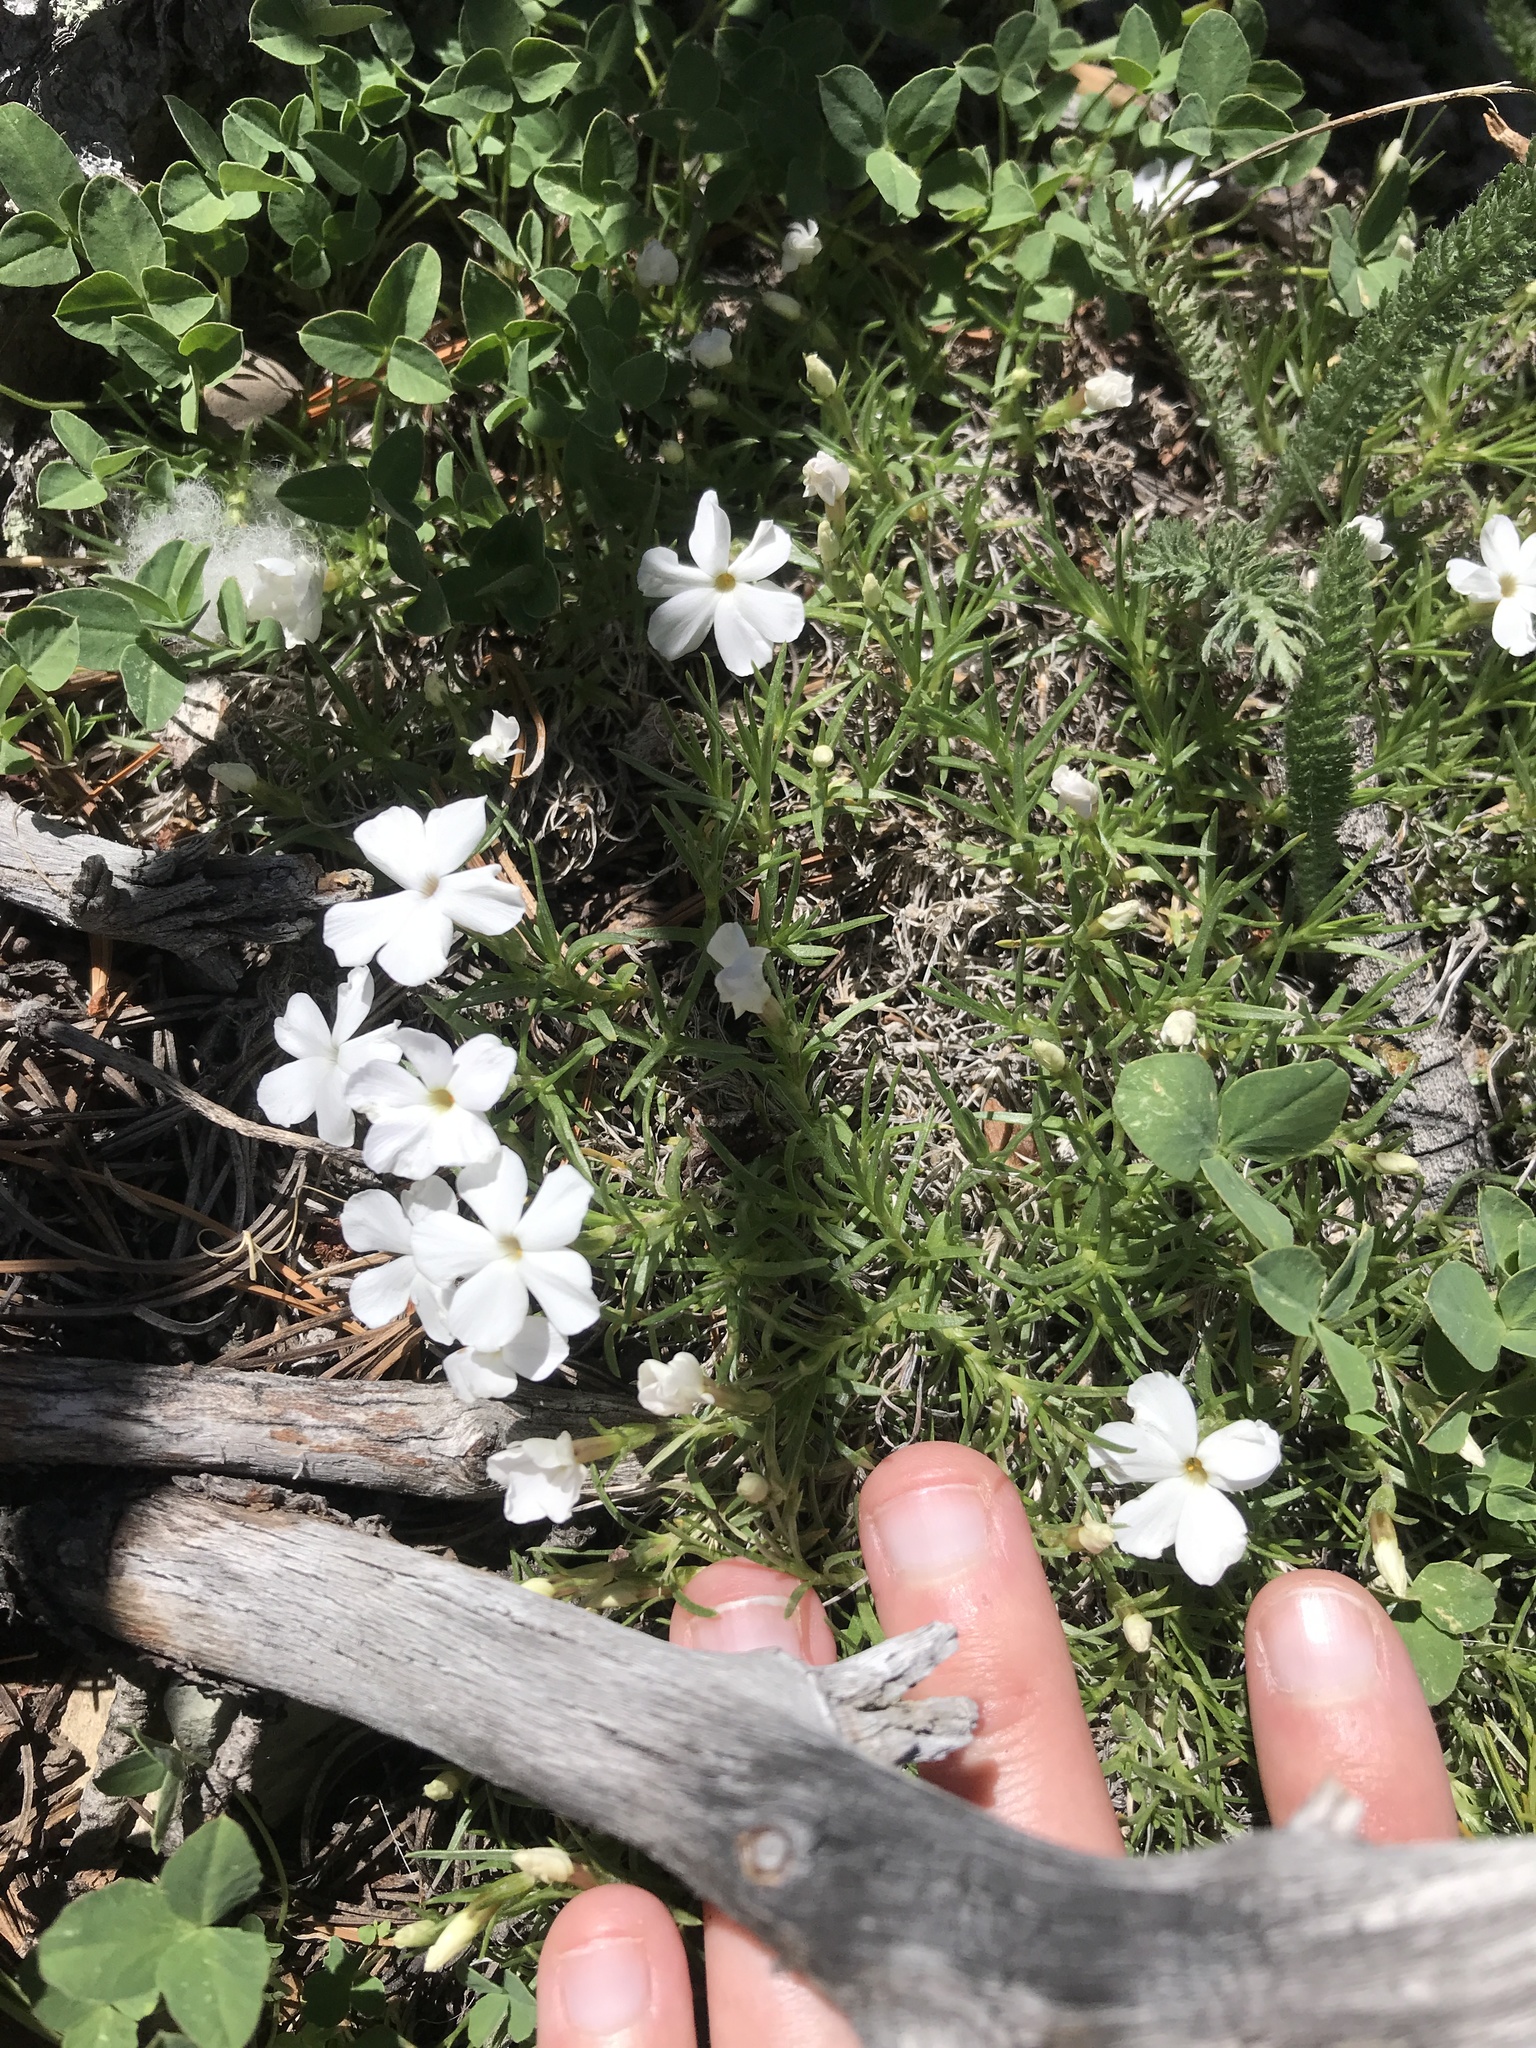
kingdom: Plantae
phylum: Tracheophyta
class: Magnoliopsida
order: Ericales
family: Polemoniaceae
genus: Phlox
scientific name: Phlox multiflora
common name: Rocky mountain phlox
